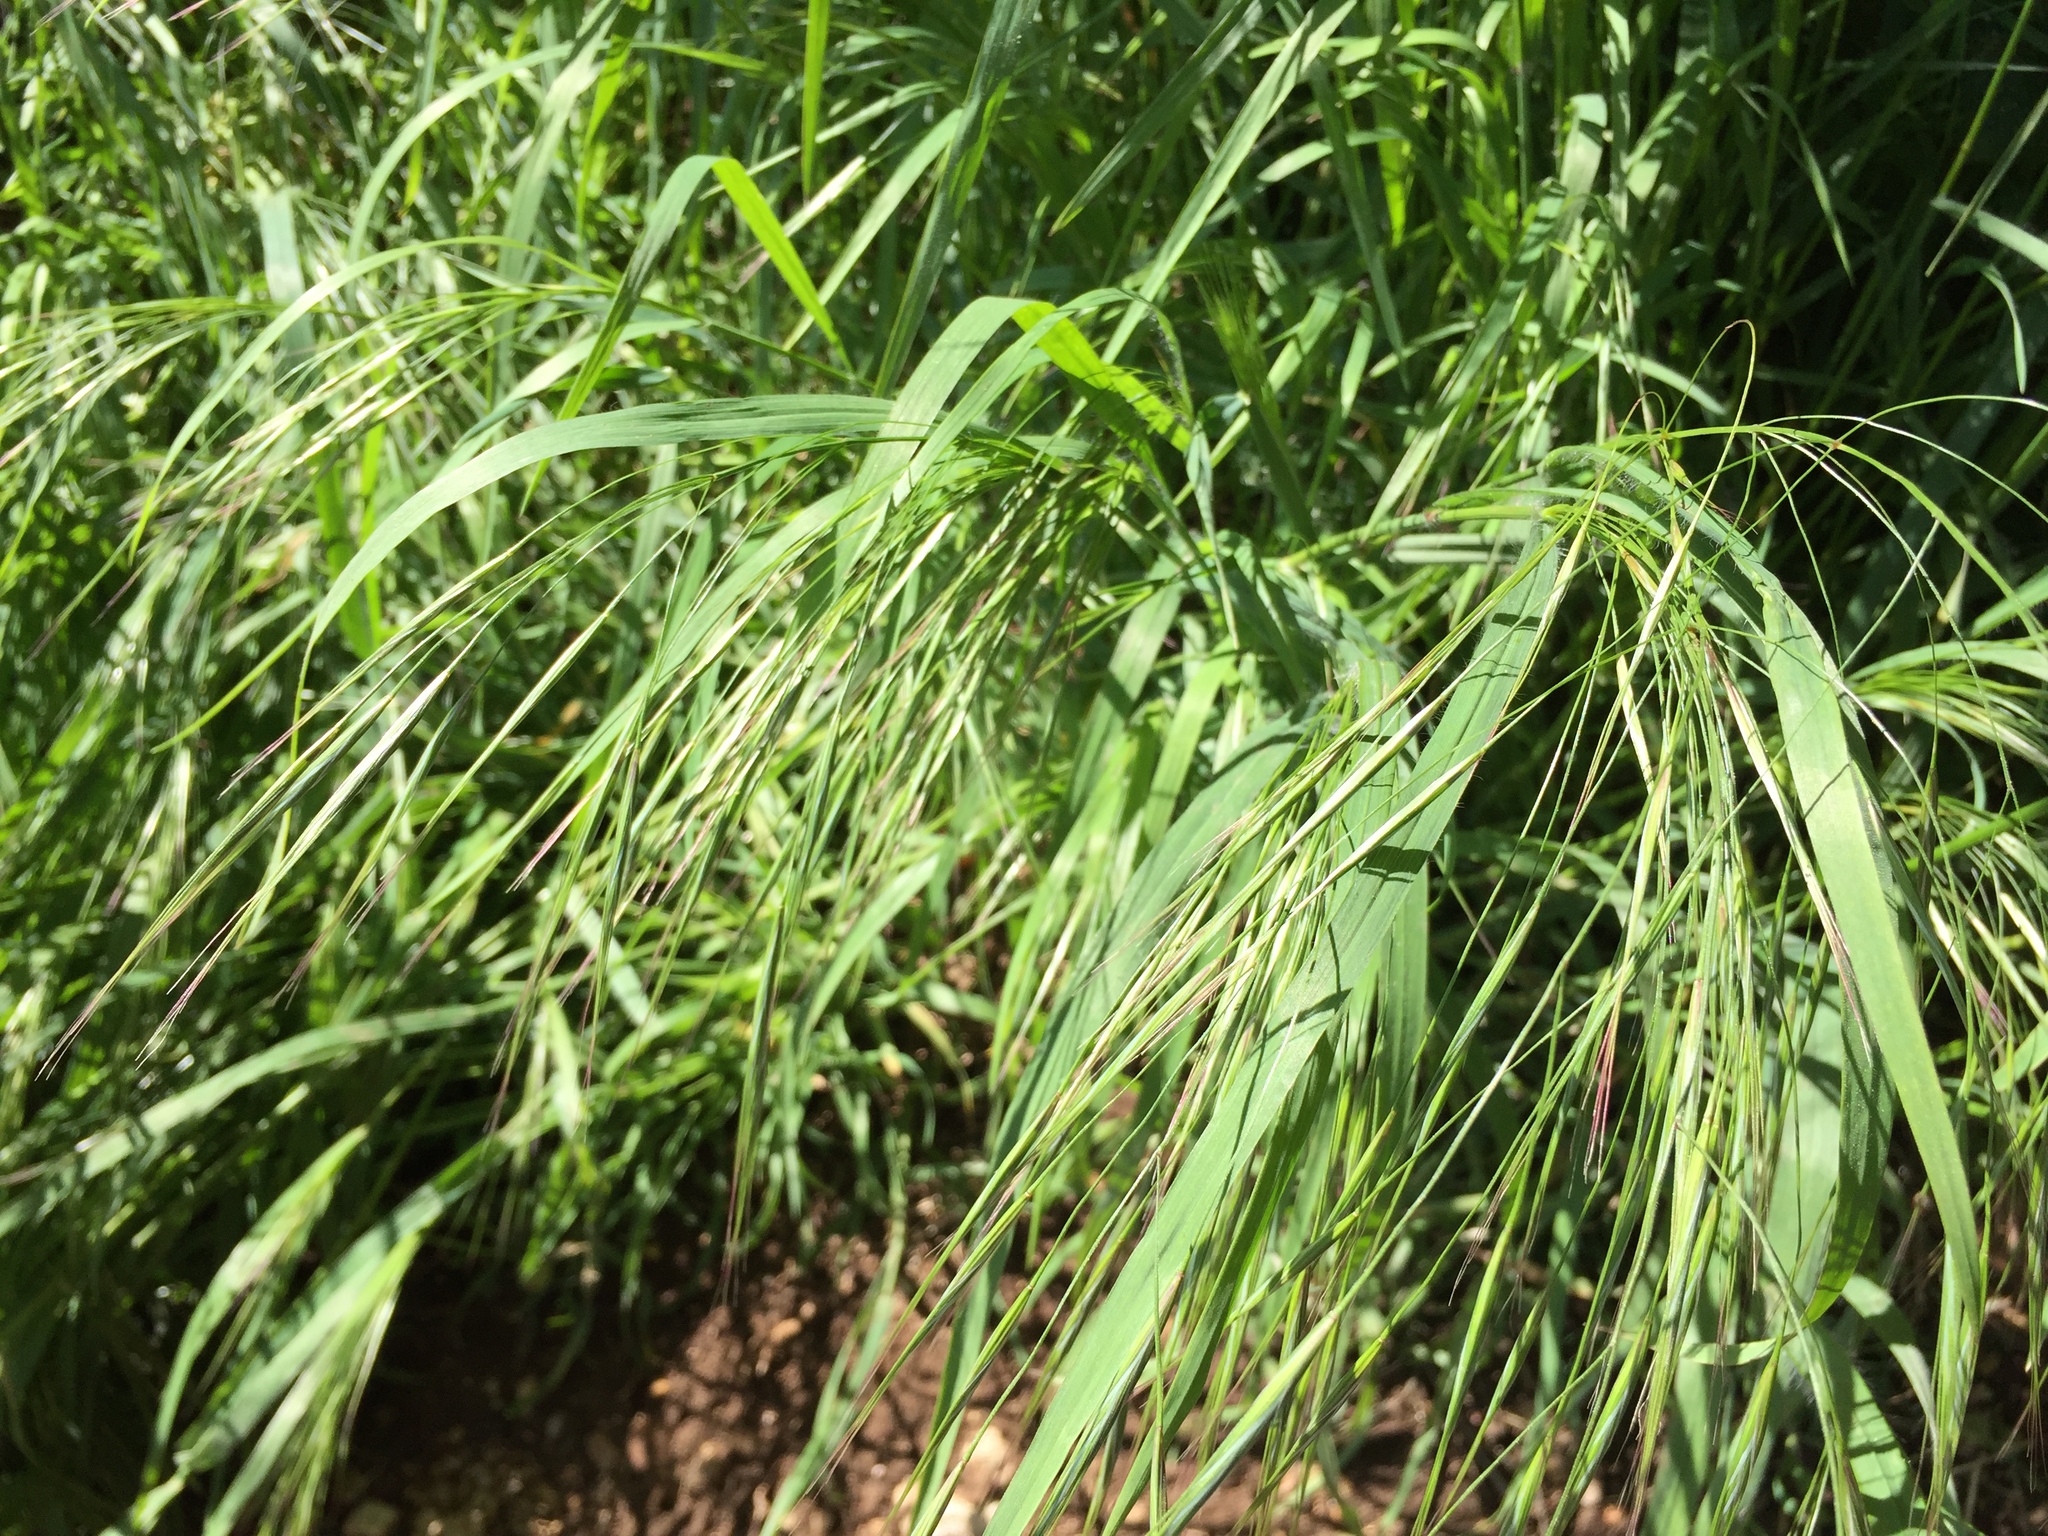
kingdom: Plantae
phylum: Tracheophyta
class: Liliopsida
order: Poales
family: Poaceae
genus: Bromus
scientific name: Bromus sterilis
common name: Poverty brome
